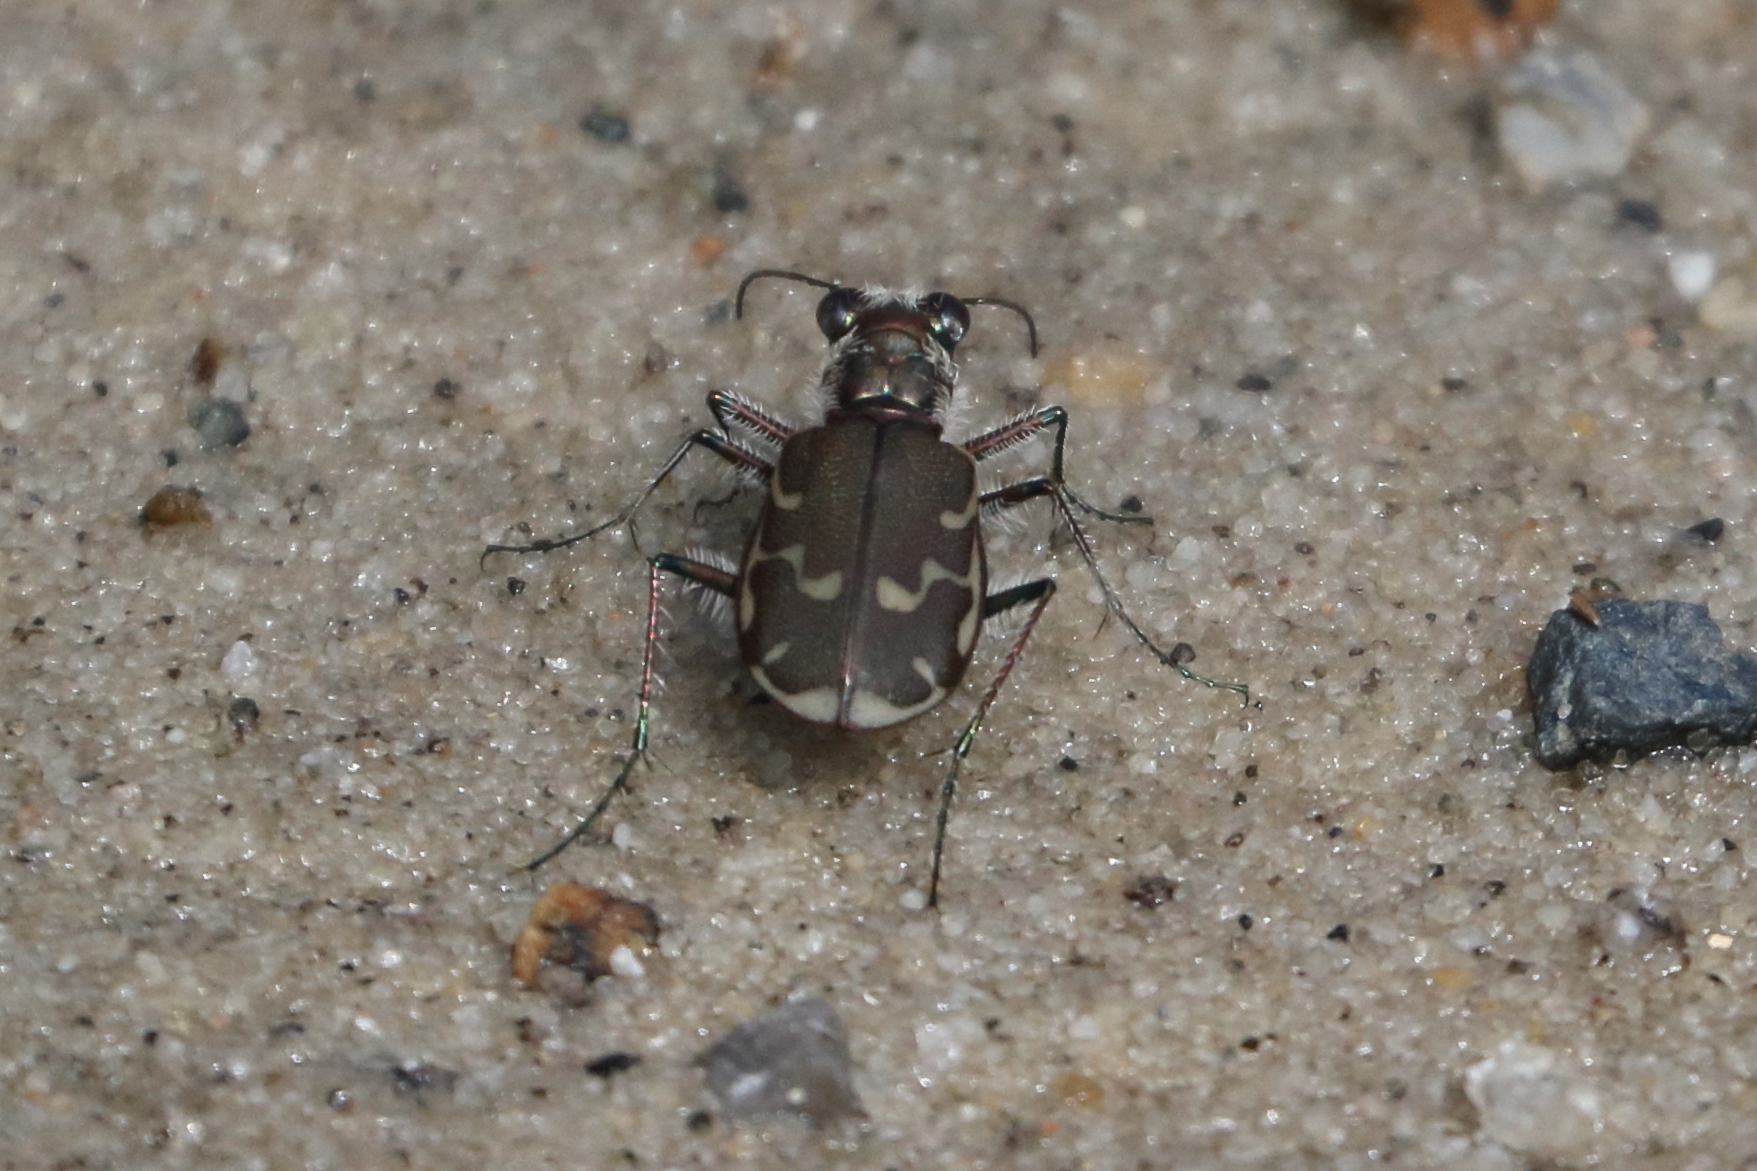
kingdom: Animalia
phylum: Arthropoda
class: Insecta
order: Coleoptera
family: Carabidae
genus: Cicindela
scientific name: Cicindela repanda
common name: Bronzed tiger beetle
